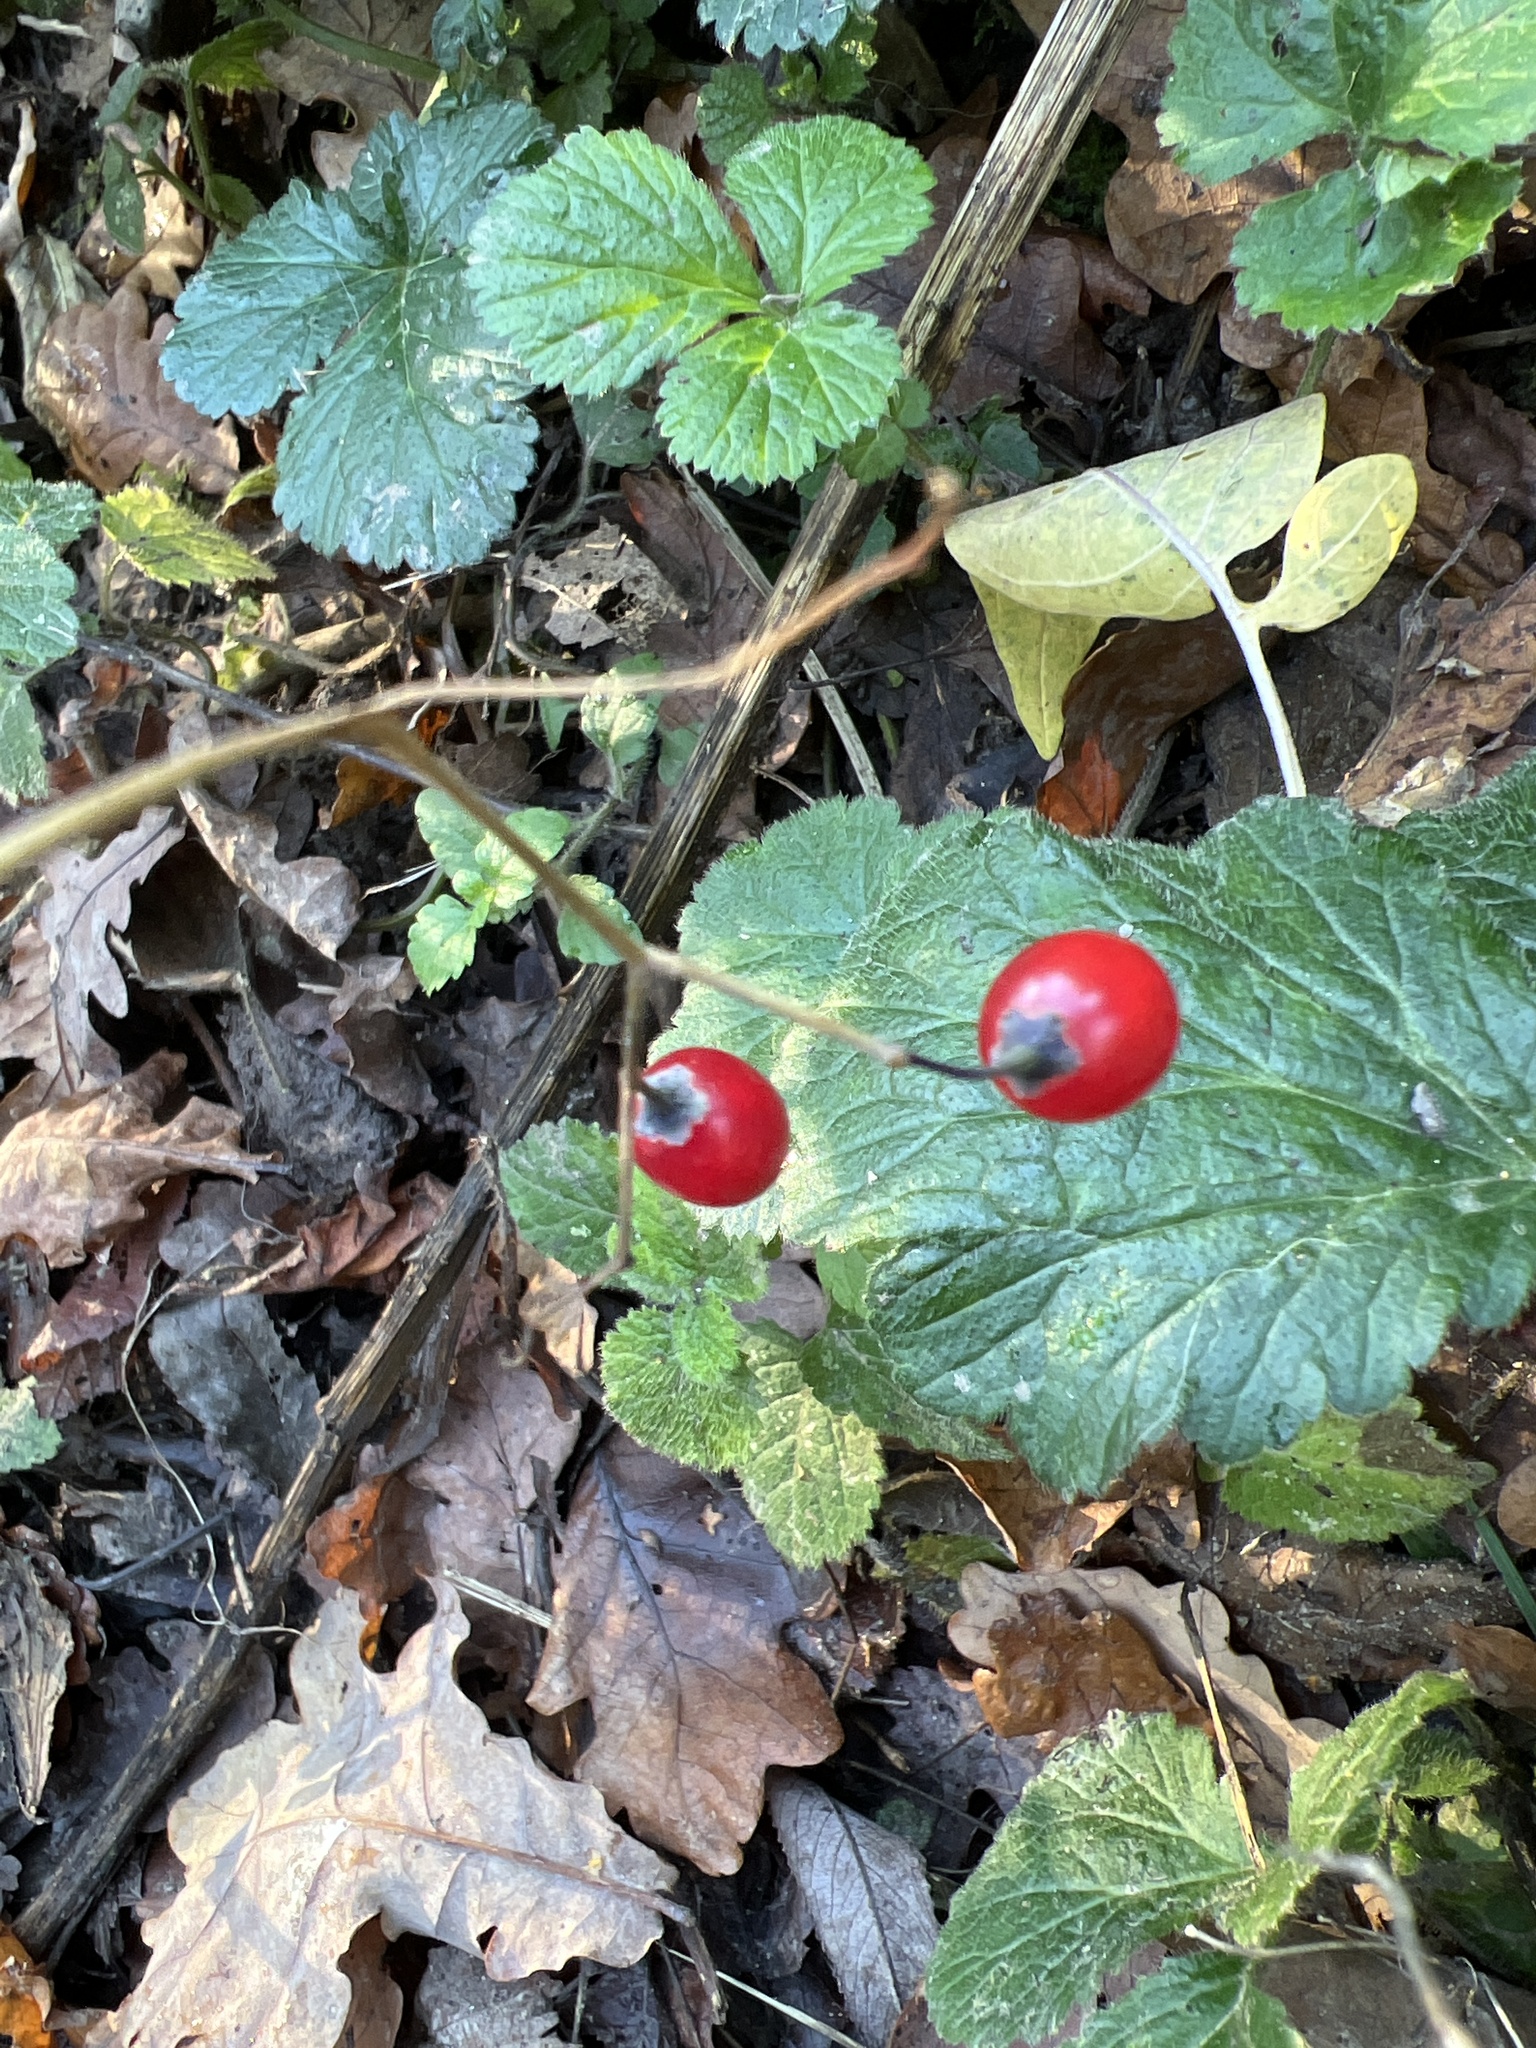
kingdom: Plantae
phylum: Tracheophyta
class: Magnoliopsida
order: Solanales
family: Solanaceae
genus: Solanum
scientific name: Solanum dulcamara
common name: Climbing nightshade
